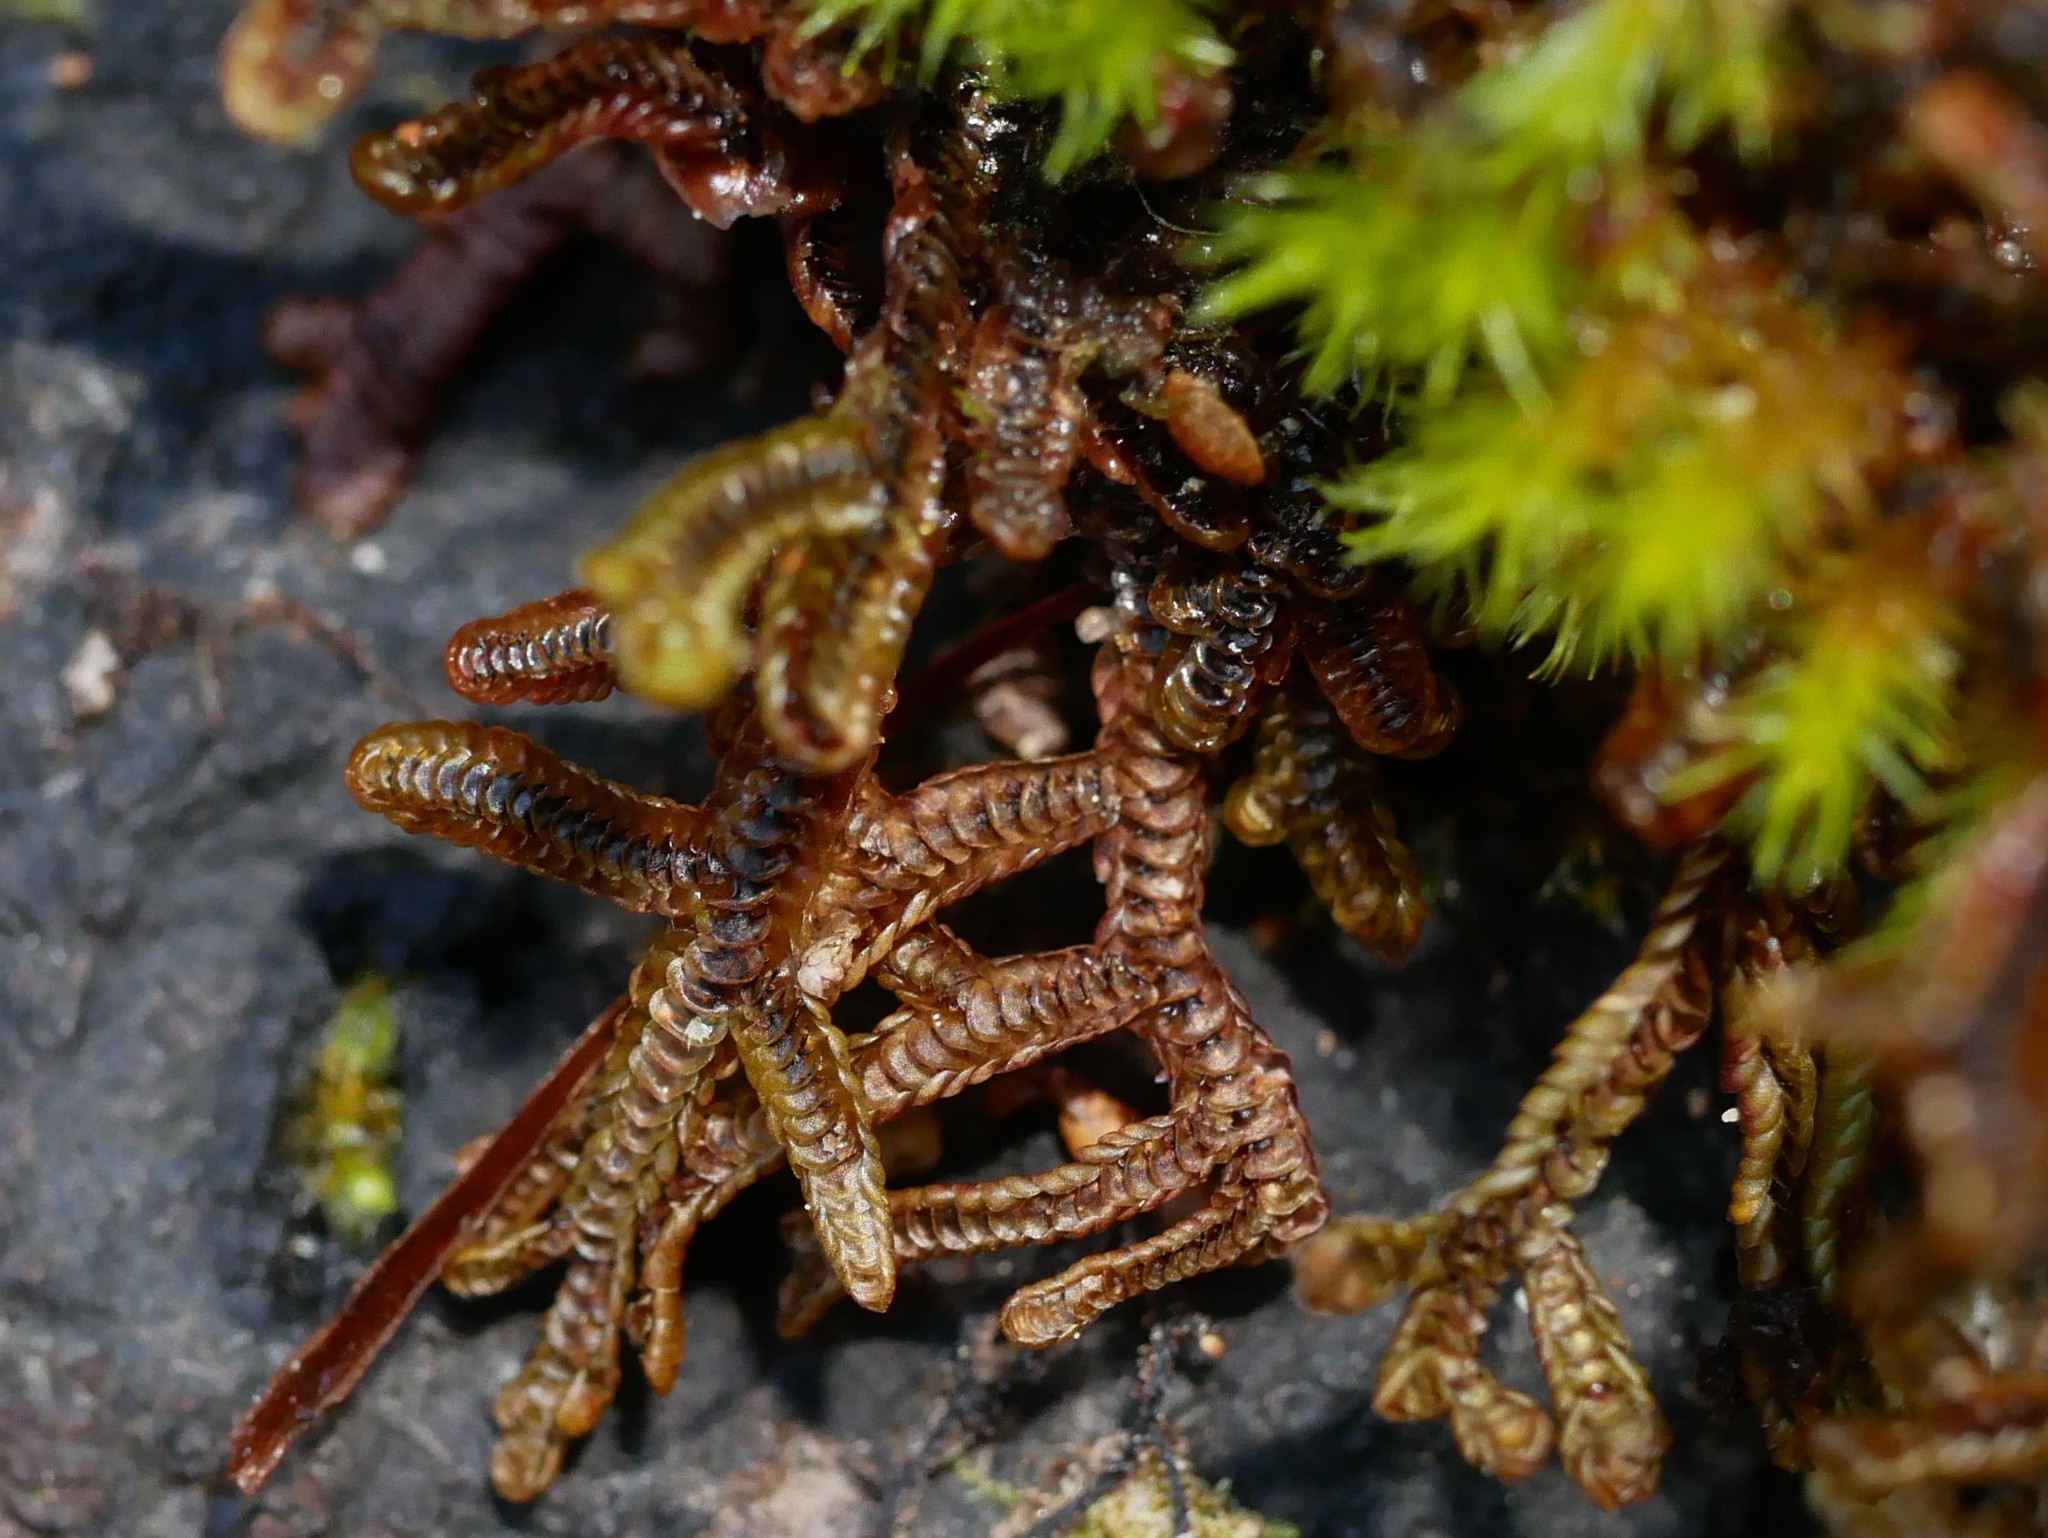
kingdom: Plantae
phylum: Marchantiophyta
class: Jungermanniopsida
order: Porellales
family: Goebeliellaceae
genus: Goebeliella
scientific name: Goebeliella cornigera
